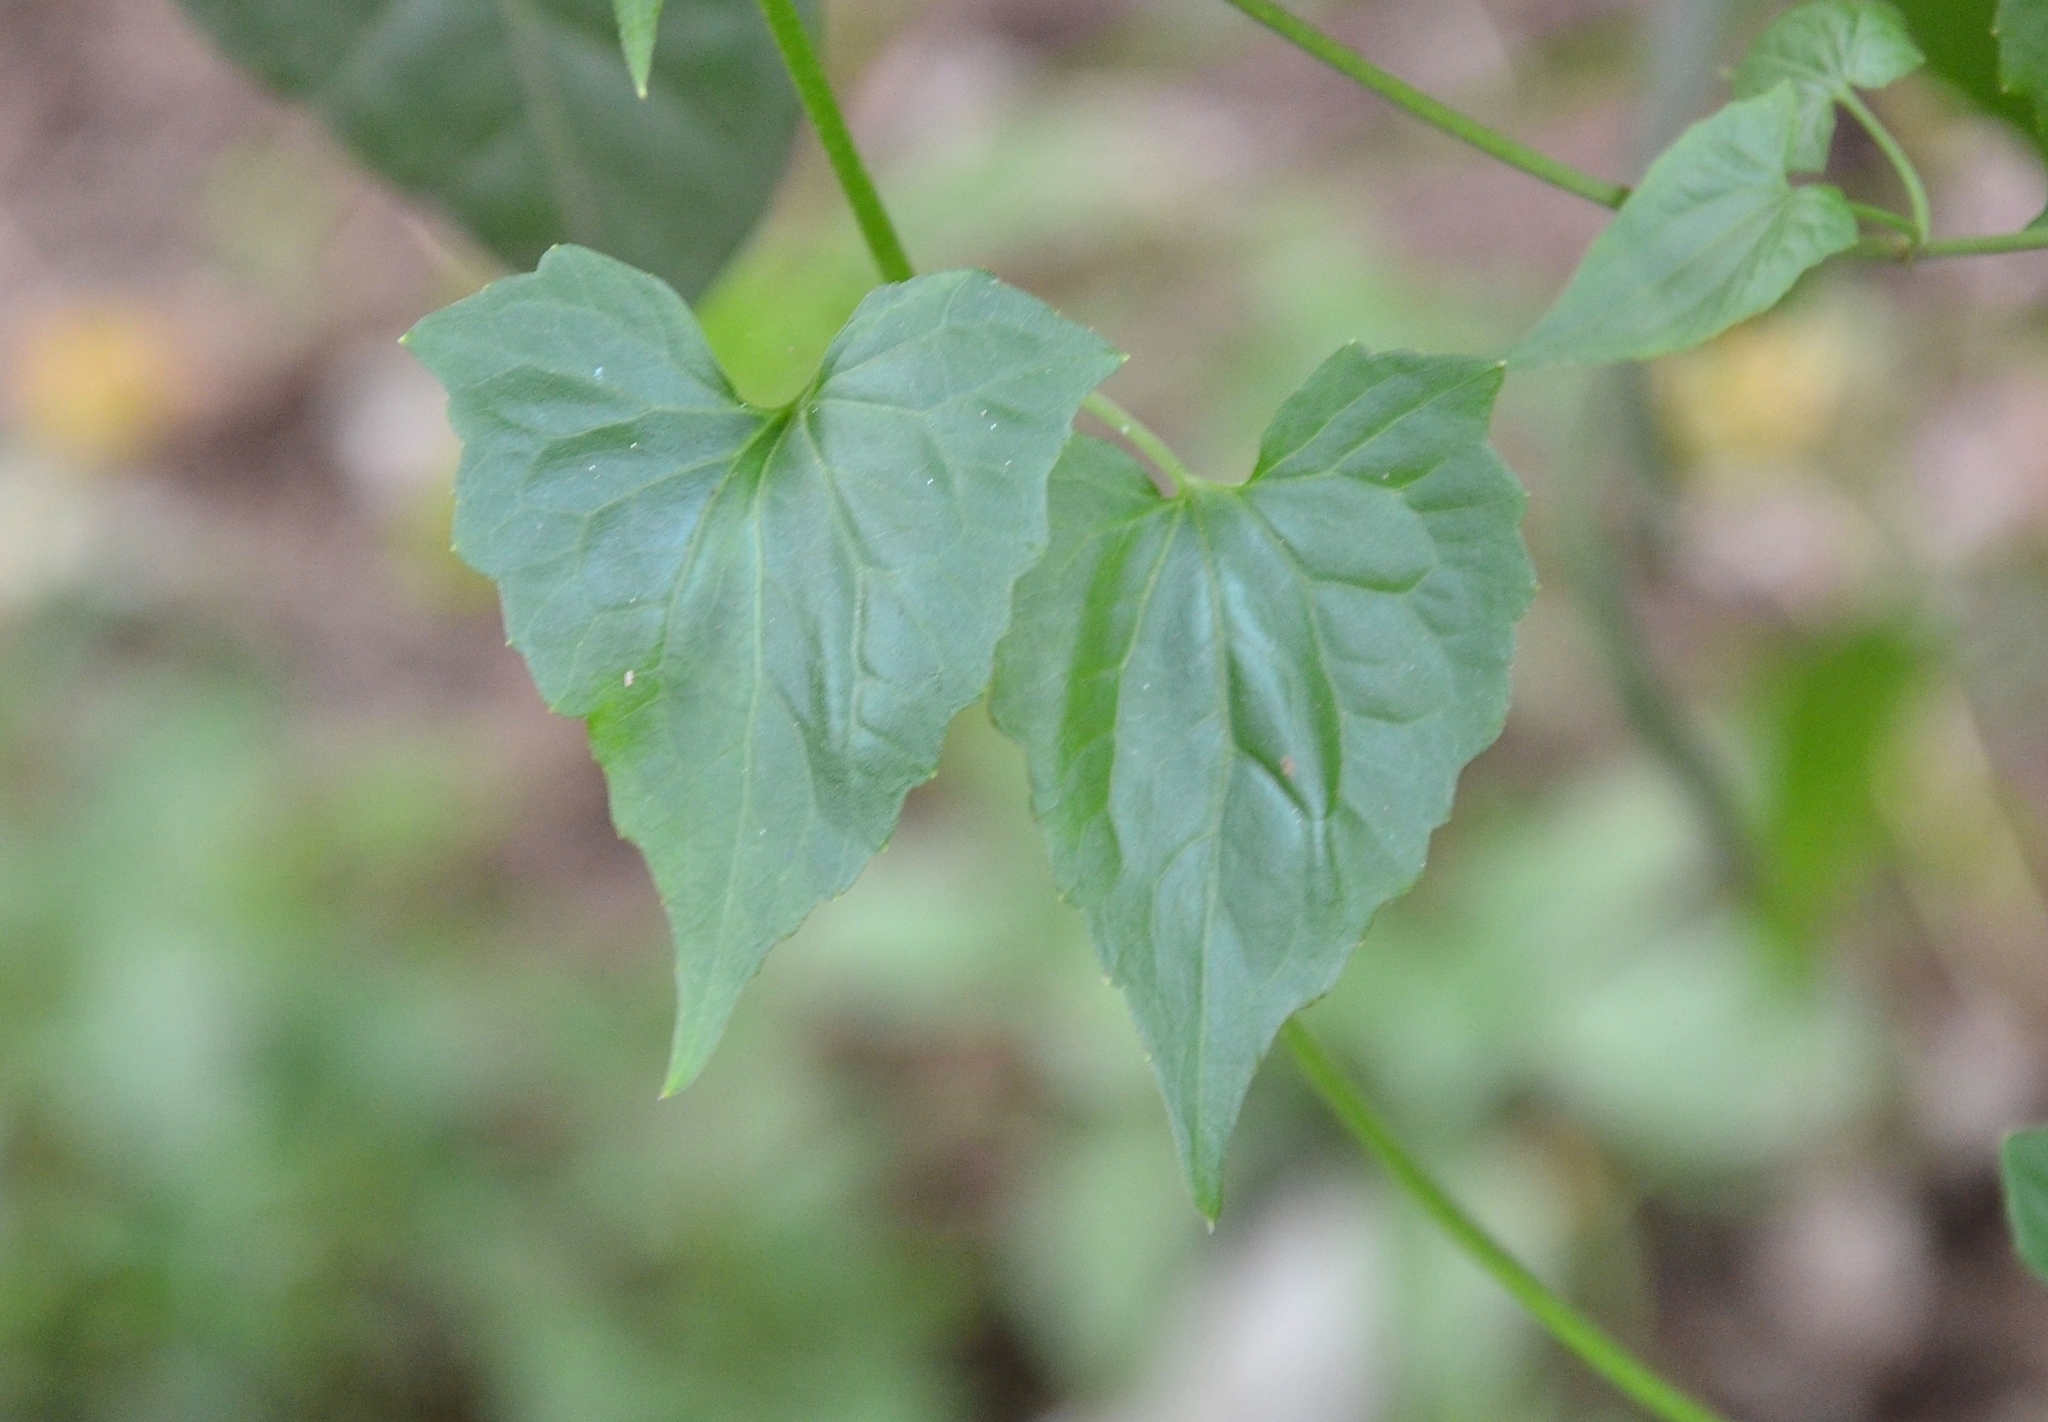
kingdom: Plantae
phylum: Tracheophyta
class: Magnoliopsida
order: Asterales
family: Asteraceae
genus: Mikania
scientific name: Mikania micrantha
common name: Mile-a-minute
